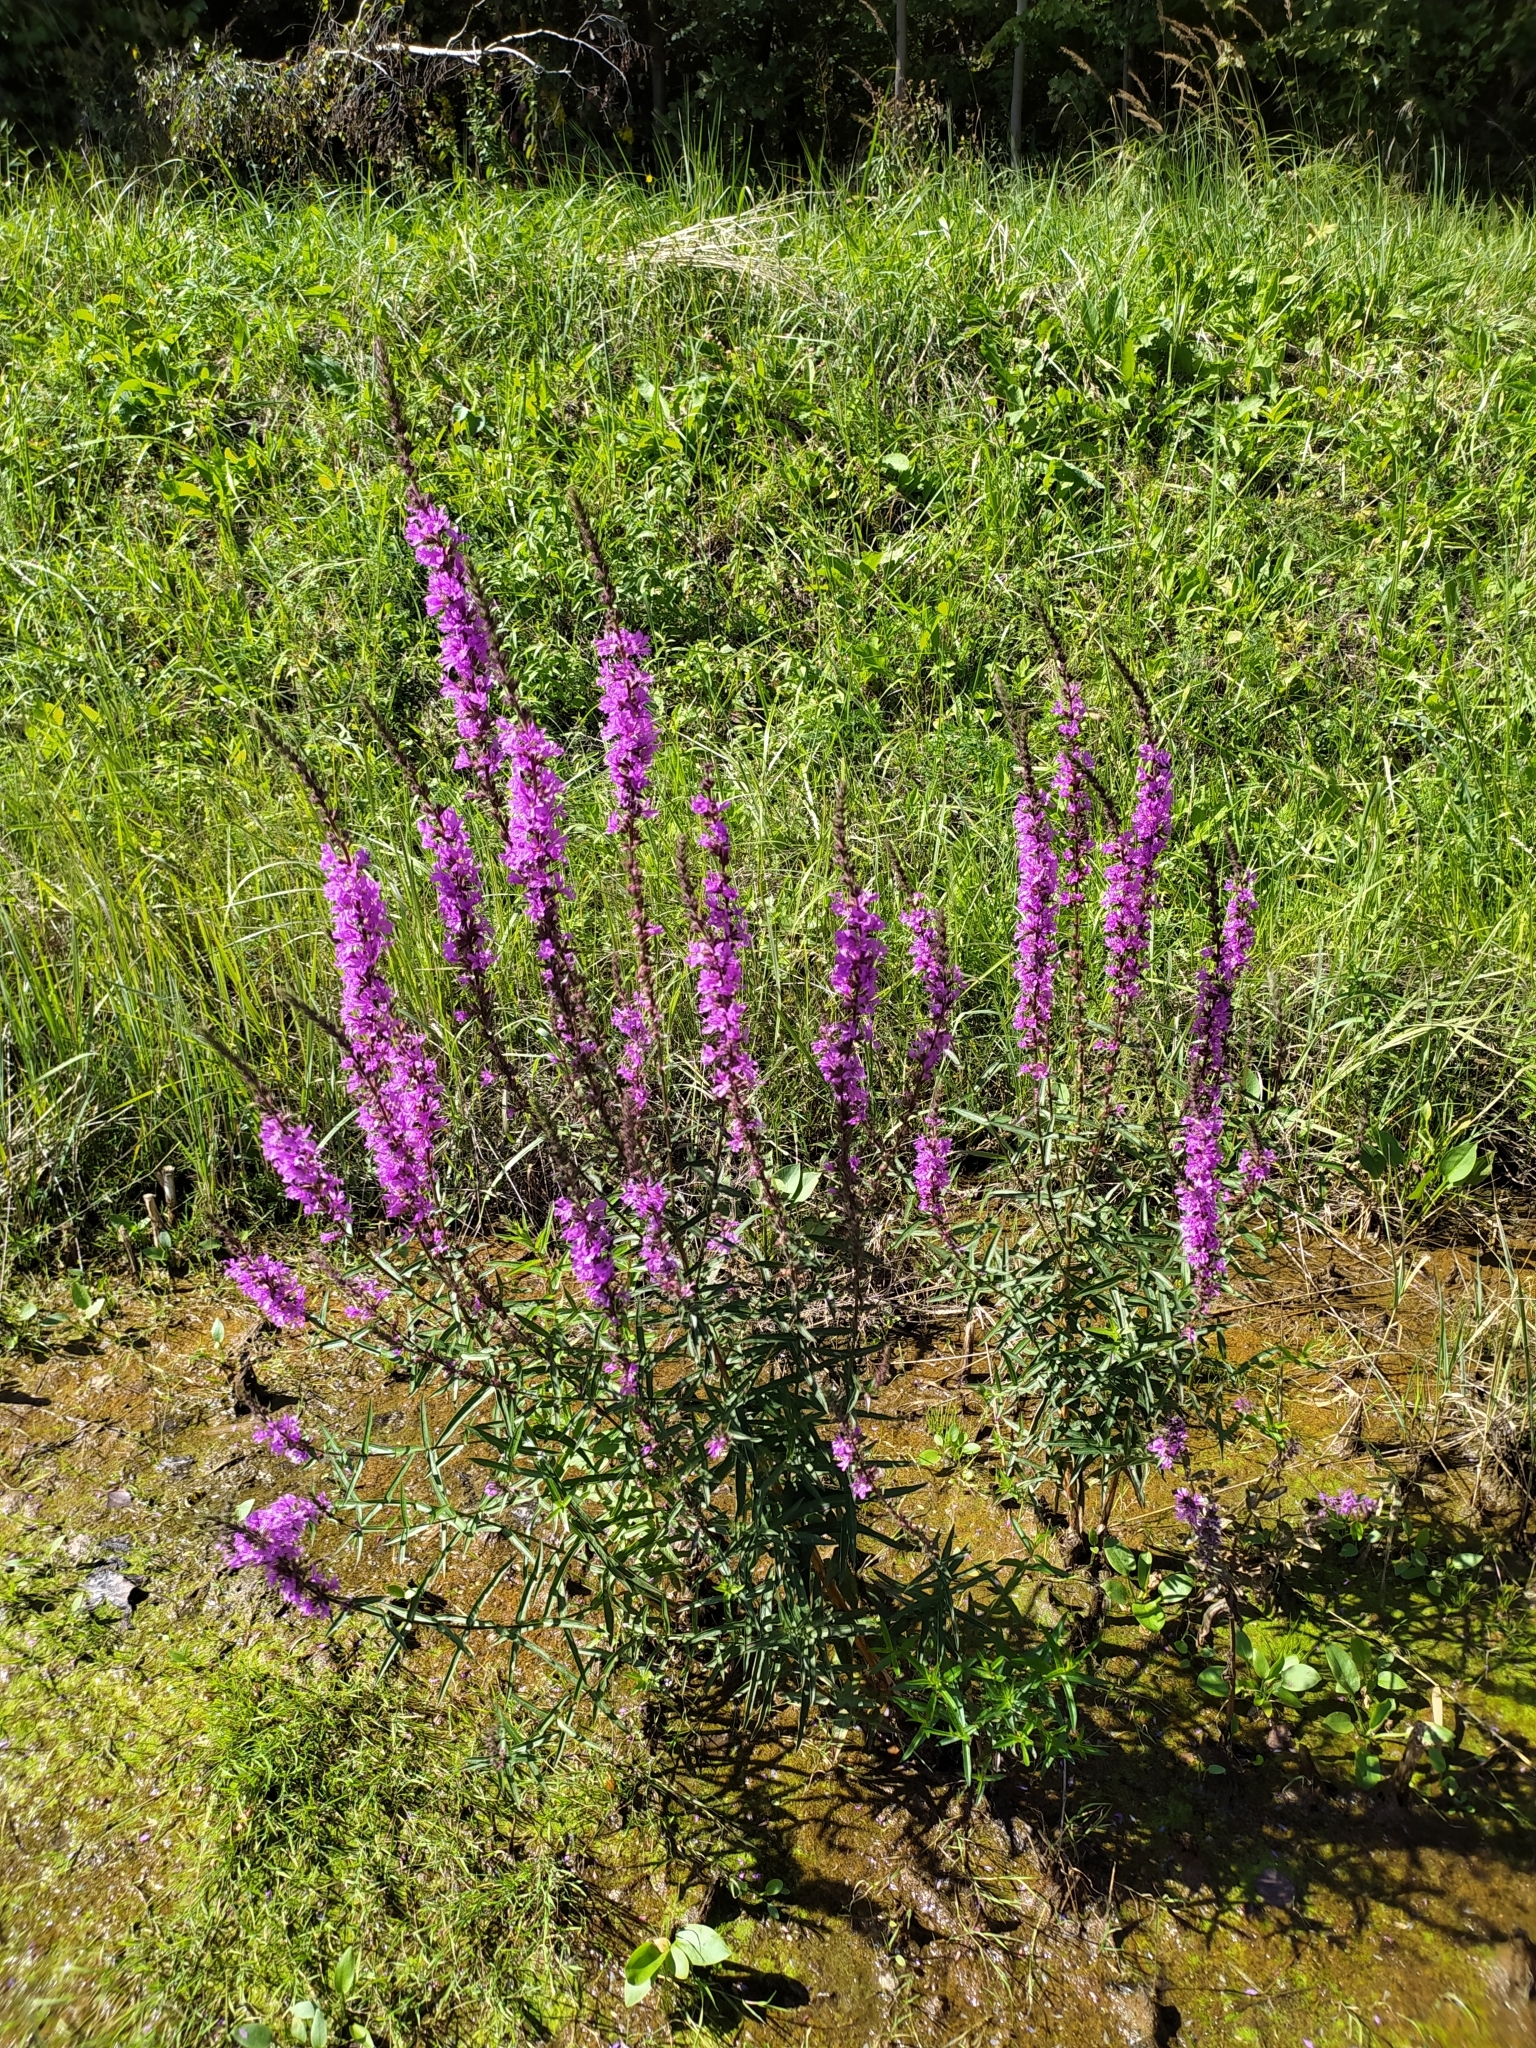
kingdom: Plantae
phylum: Tracheophyta
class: Magnoliopsida
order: Myrtales
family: Lythraceae
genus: Lythrum
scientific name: Lythrum salicaria
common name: Purple loosestrife
